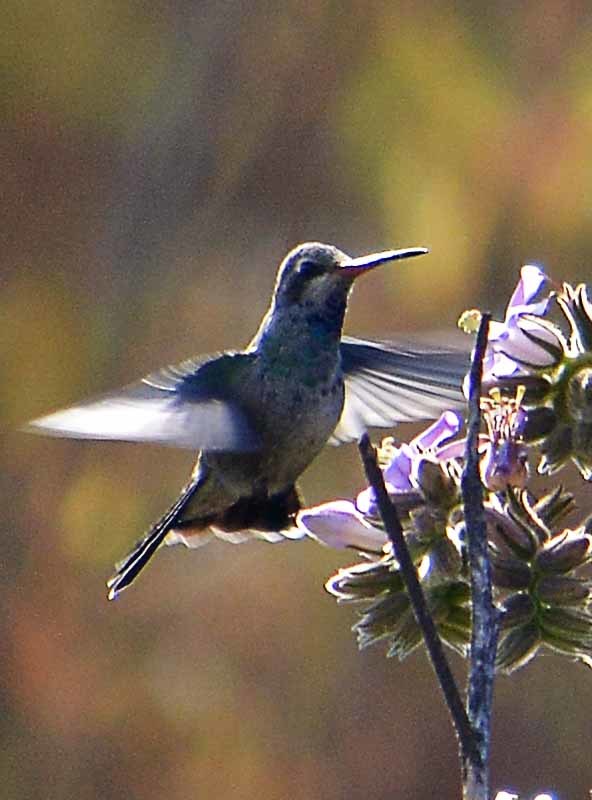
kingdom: Animalia
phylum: Chordata
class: Aves
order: Apodiformes
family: Trochilidae
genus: Cynanthus
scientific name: Cynanthus latirostris
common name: Broad-billed hummingbird
